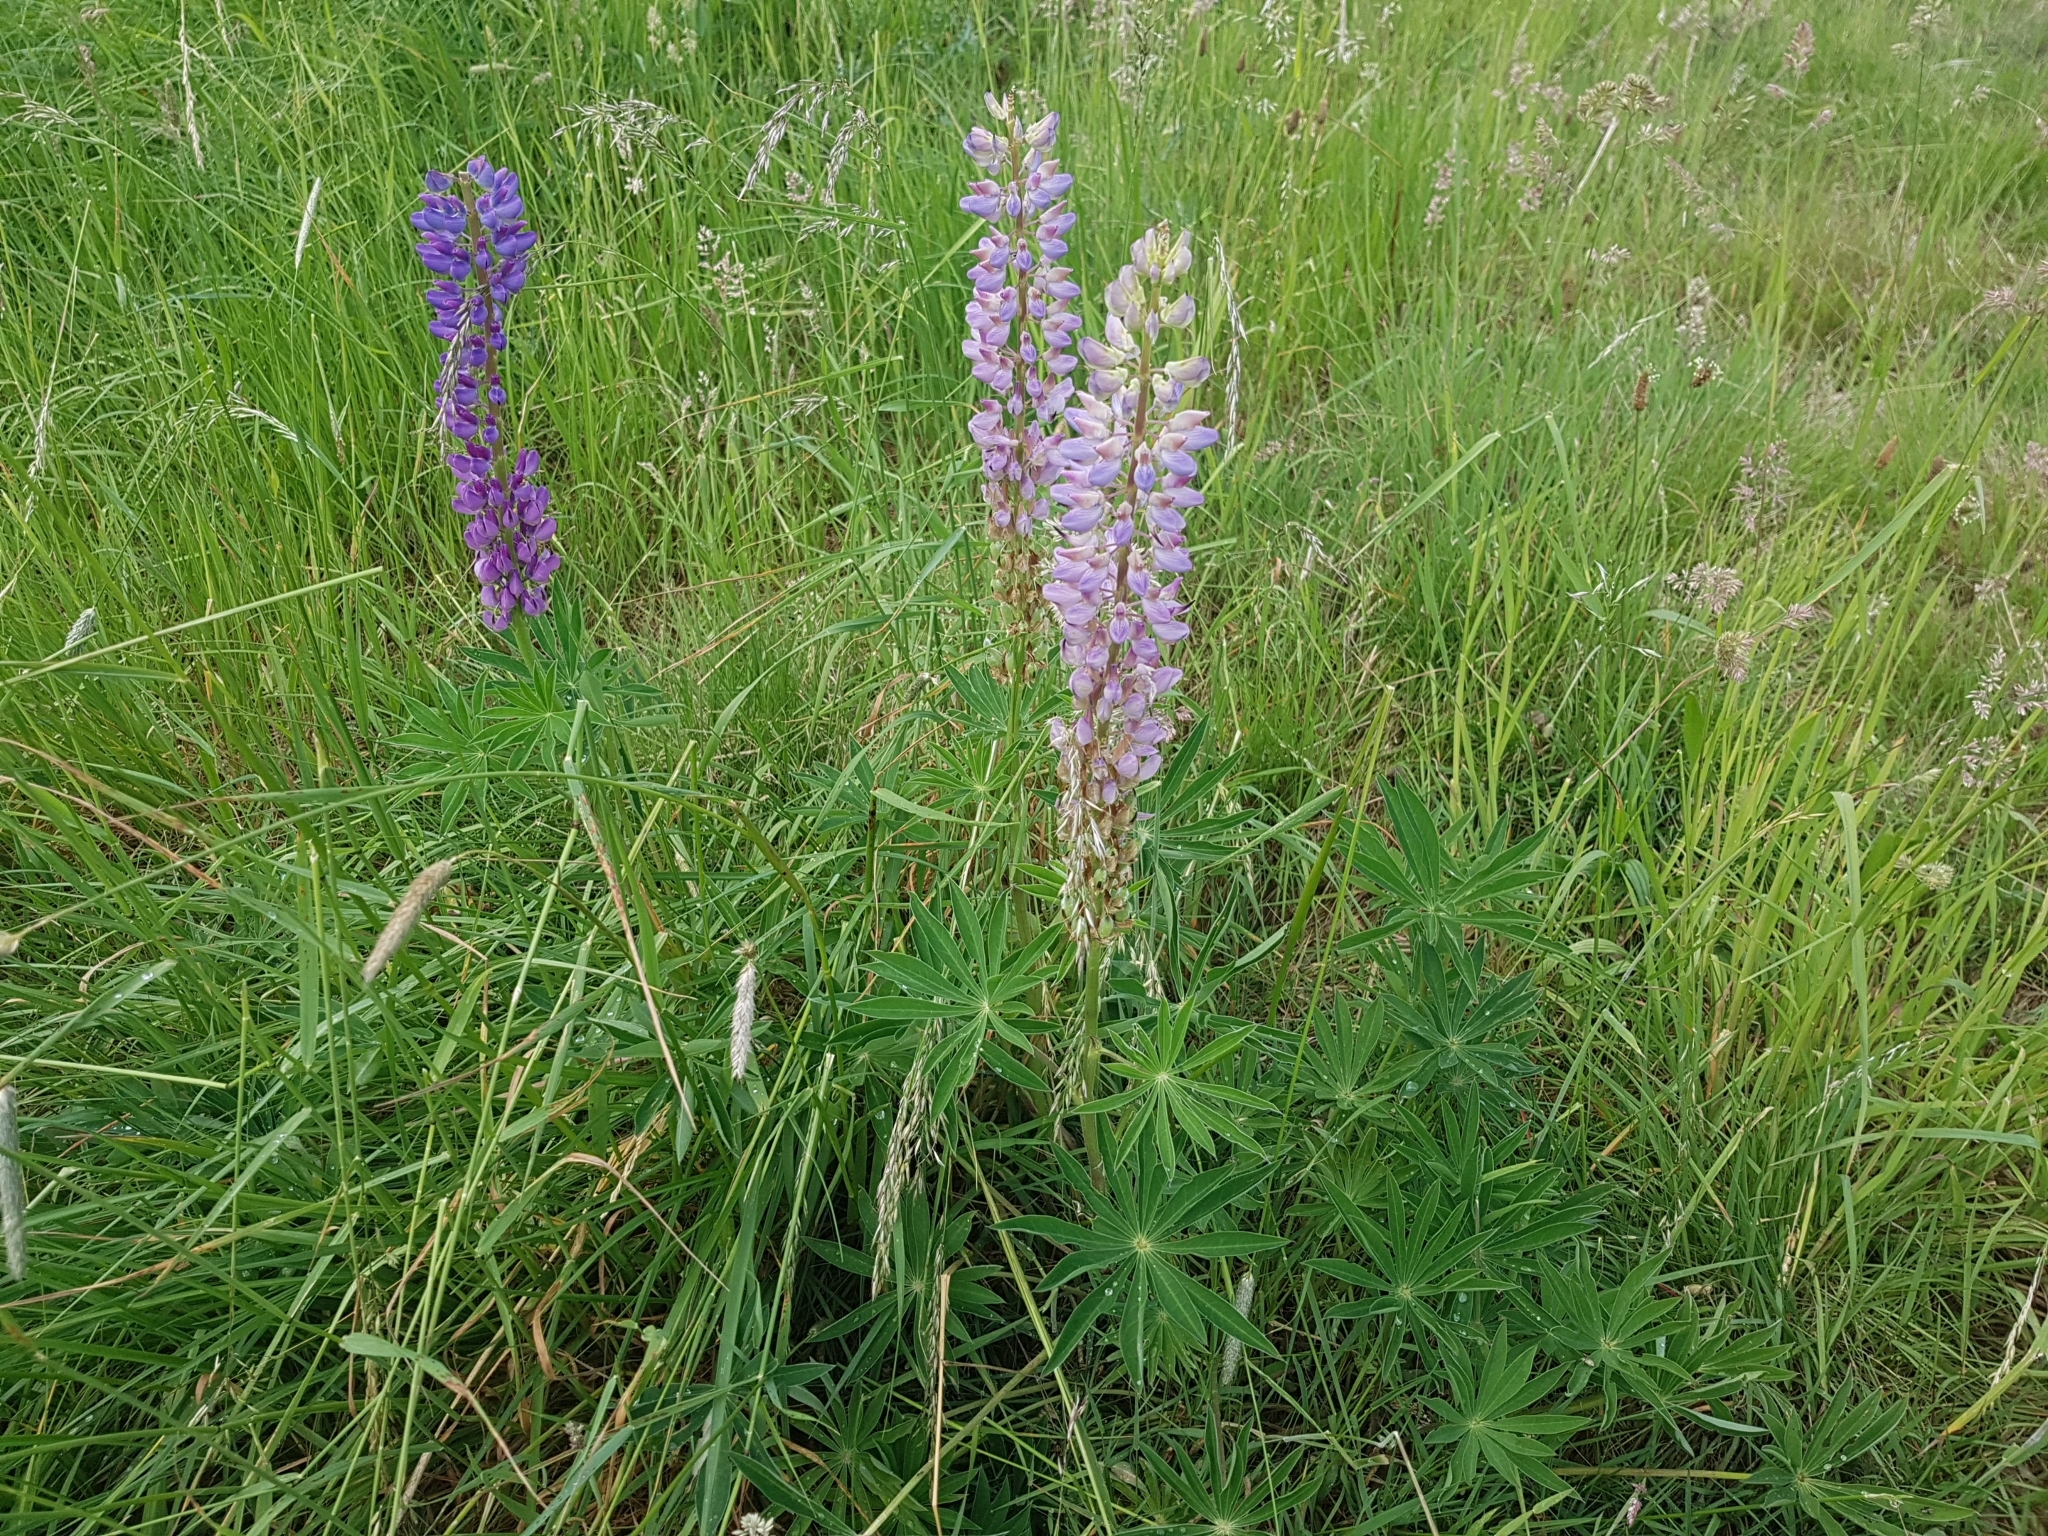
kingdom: Plantae
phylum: Tracheophyta
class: Magnoliopsida
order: Fabales
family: Fabaceae
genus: Lupinus
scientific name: Lupinus polyphyllus
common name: Garden lupin
